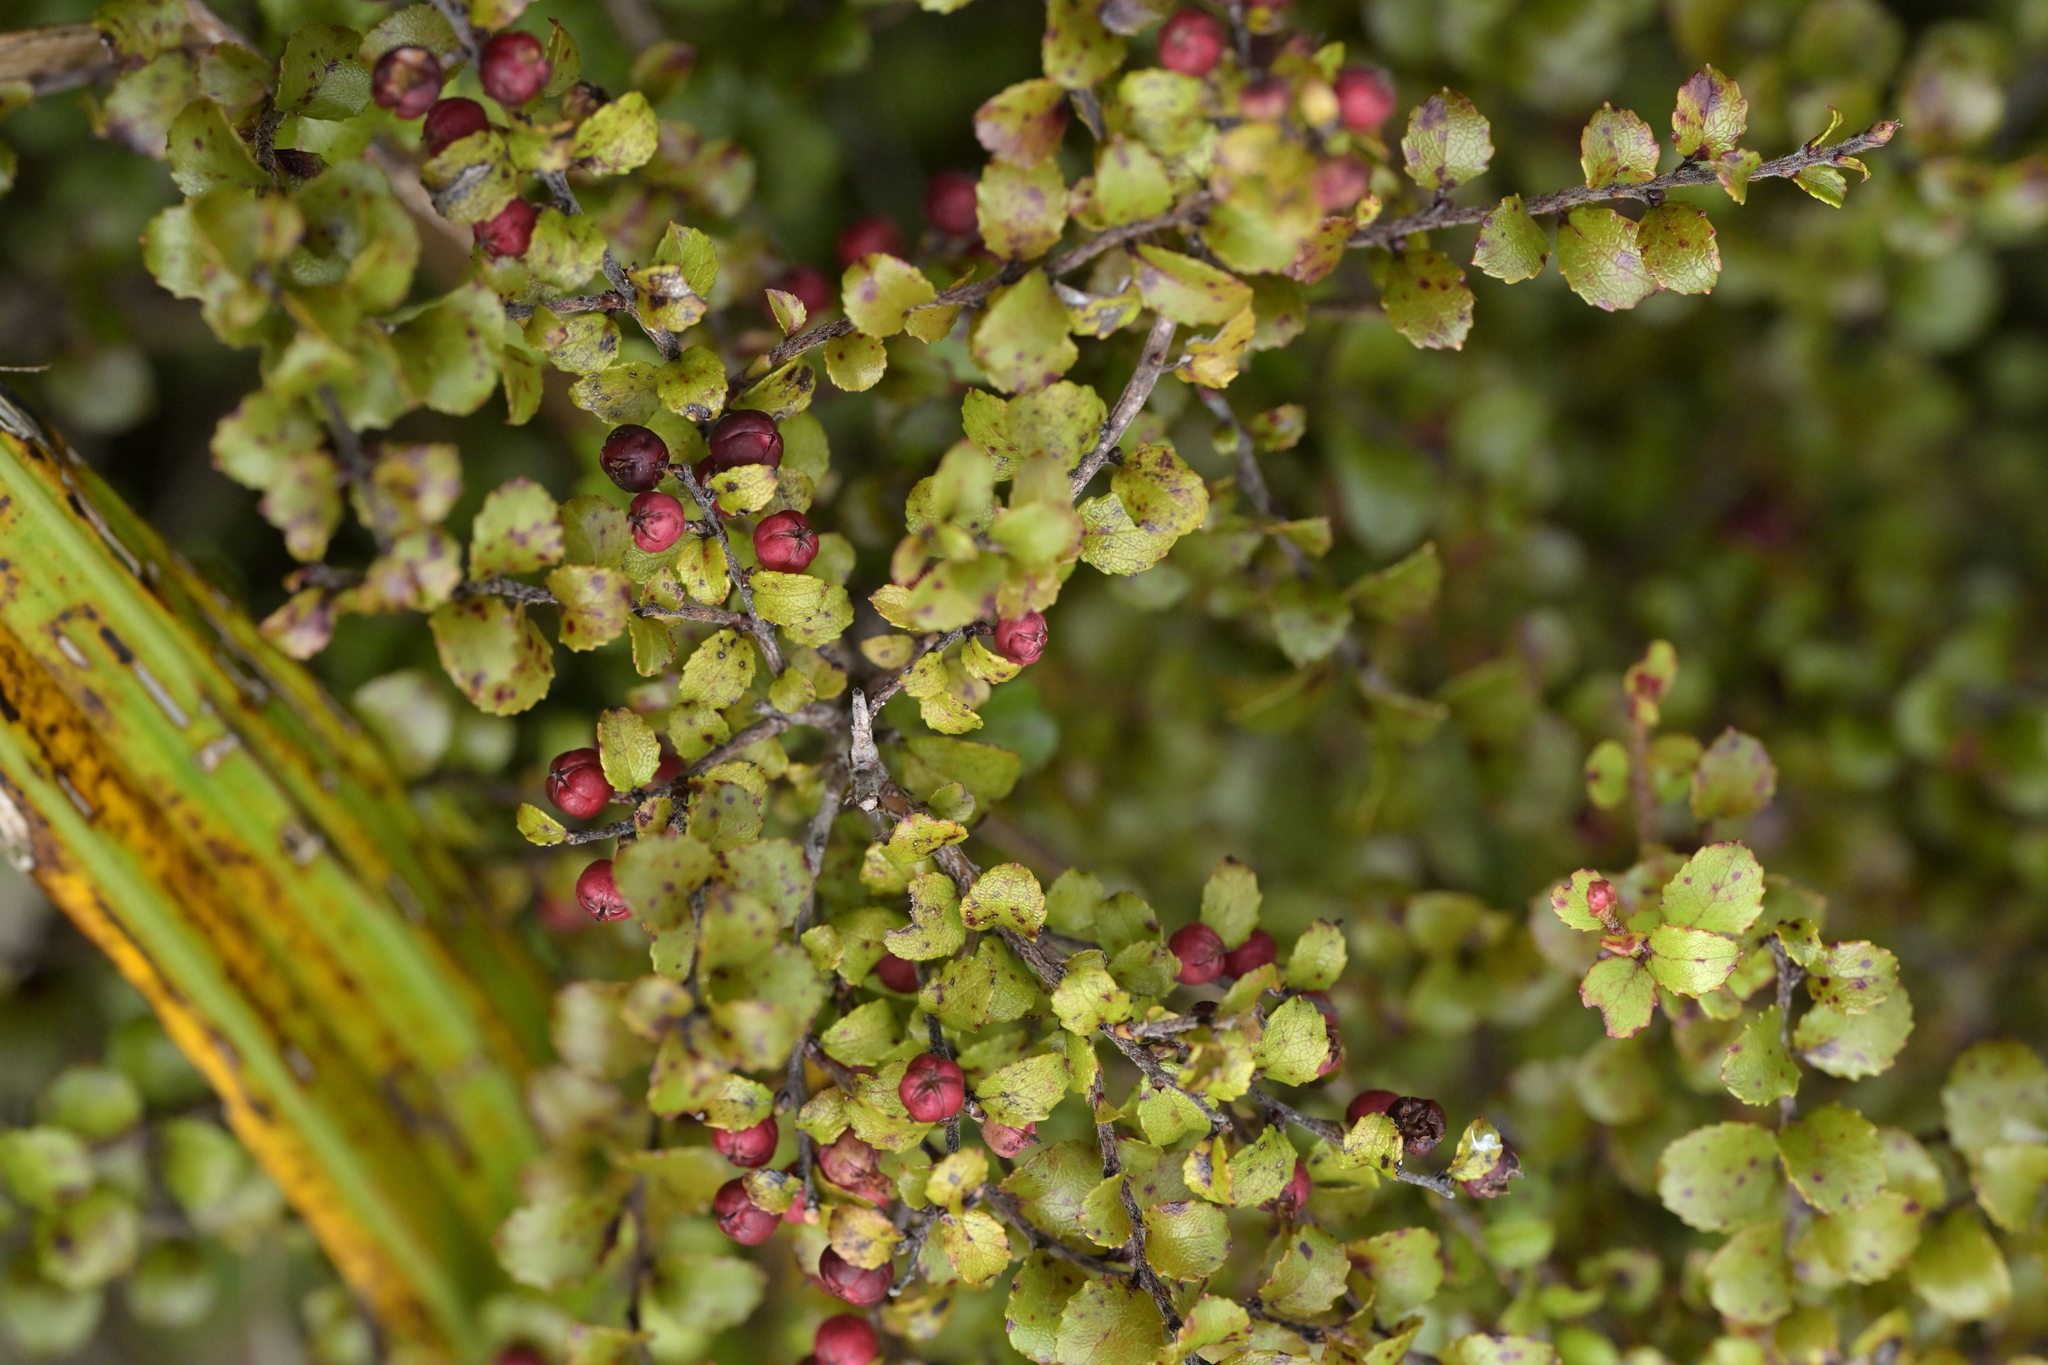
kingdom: Plantae
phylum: Tracheophyta
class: Magnoliopsida
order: Ericales
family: Ericaceae
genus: Gaultheria
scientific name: Gaultheria antipoda
